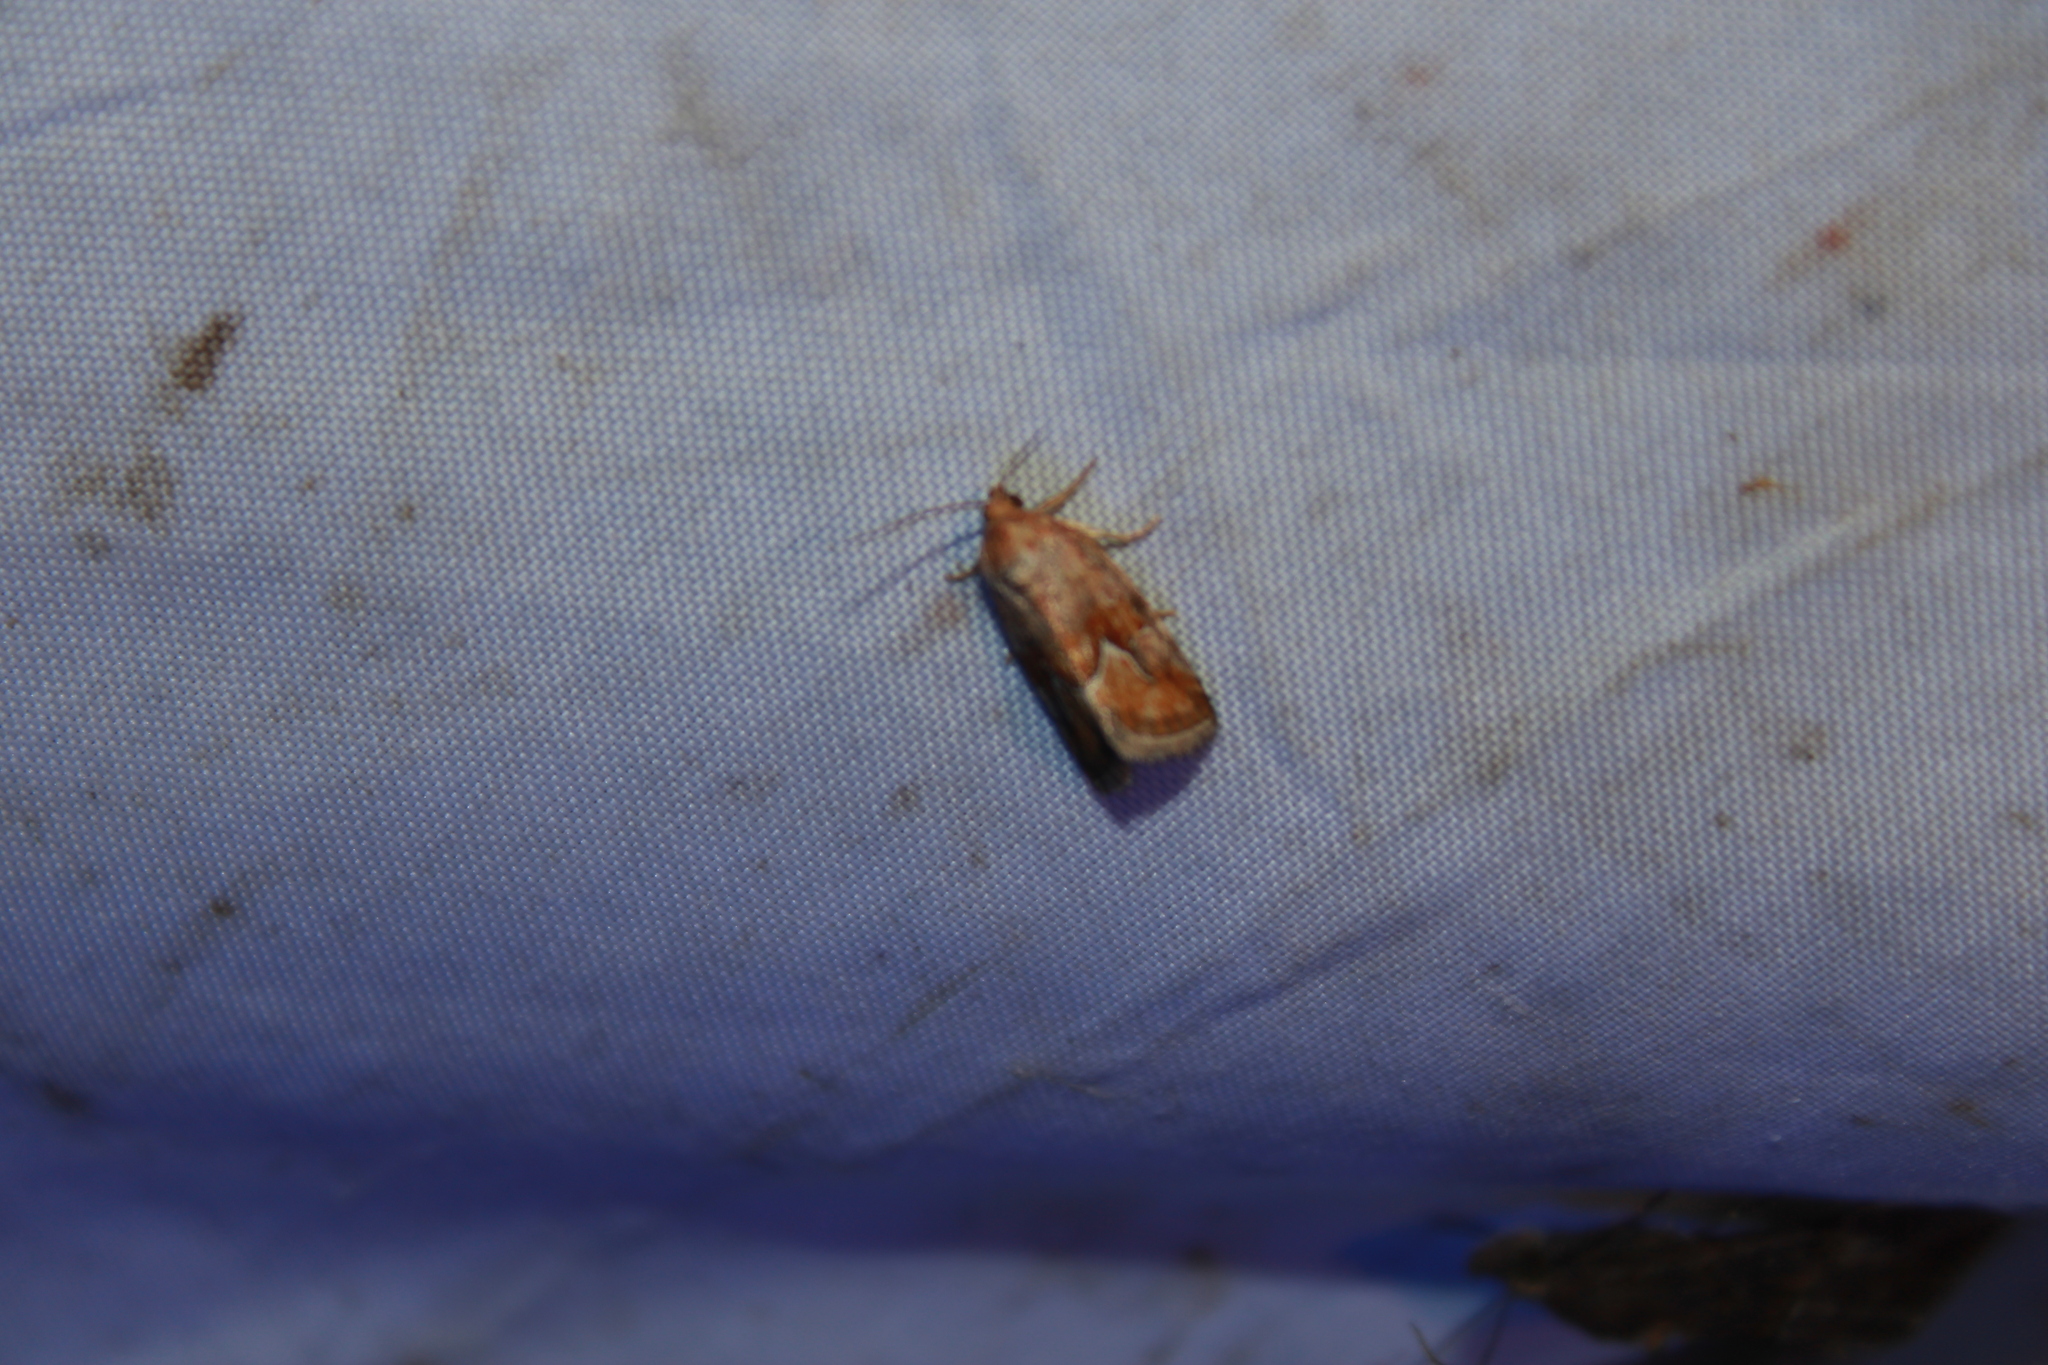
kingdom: Animalia
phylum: Arthropoda
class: Insecta
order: Lepidoptera
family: Noctuidae
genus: Deltote
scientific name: Deltote bellicula
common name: Bog glyph
